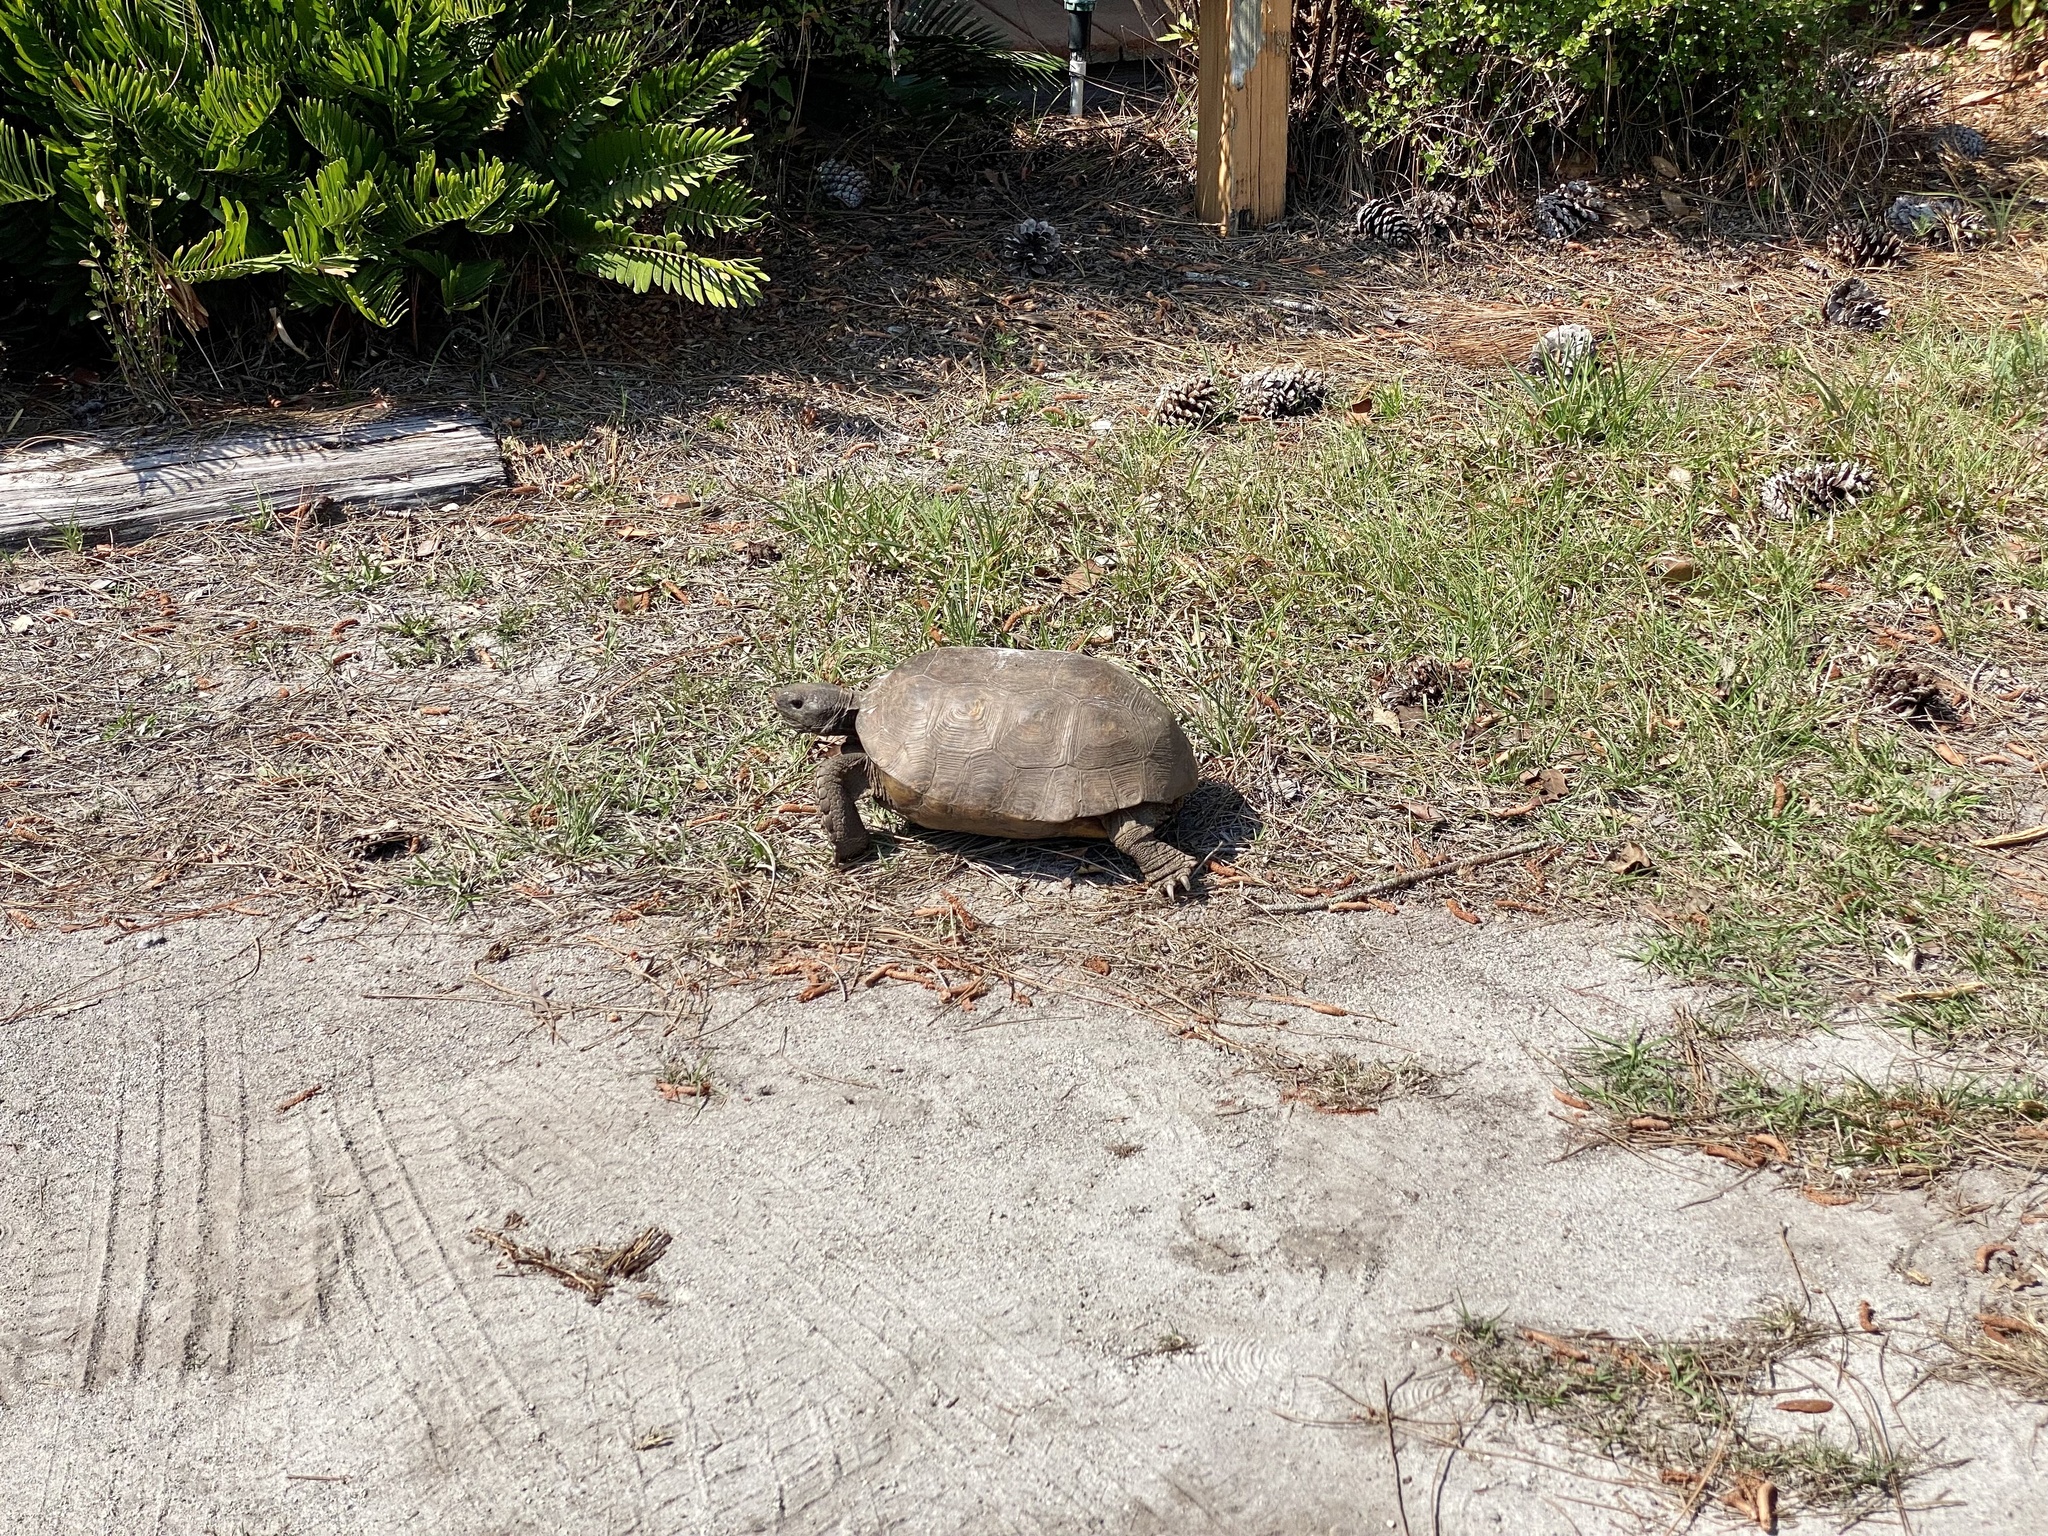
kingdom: Animalia
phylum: Chordata
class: Testudines
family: Testudinidae
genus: Gopherus
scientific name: Gopherus polyphemus
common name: Florida gopher tortoise
